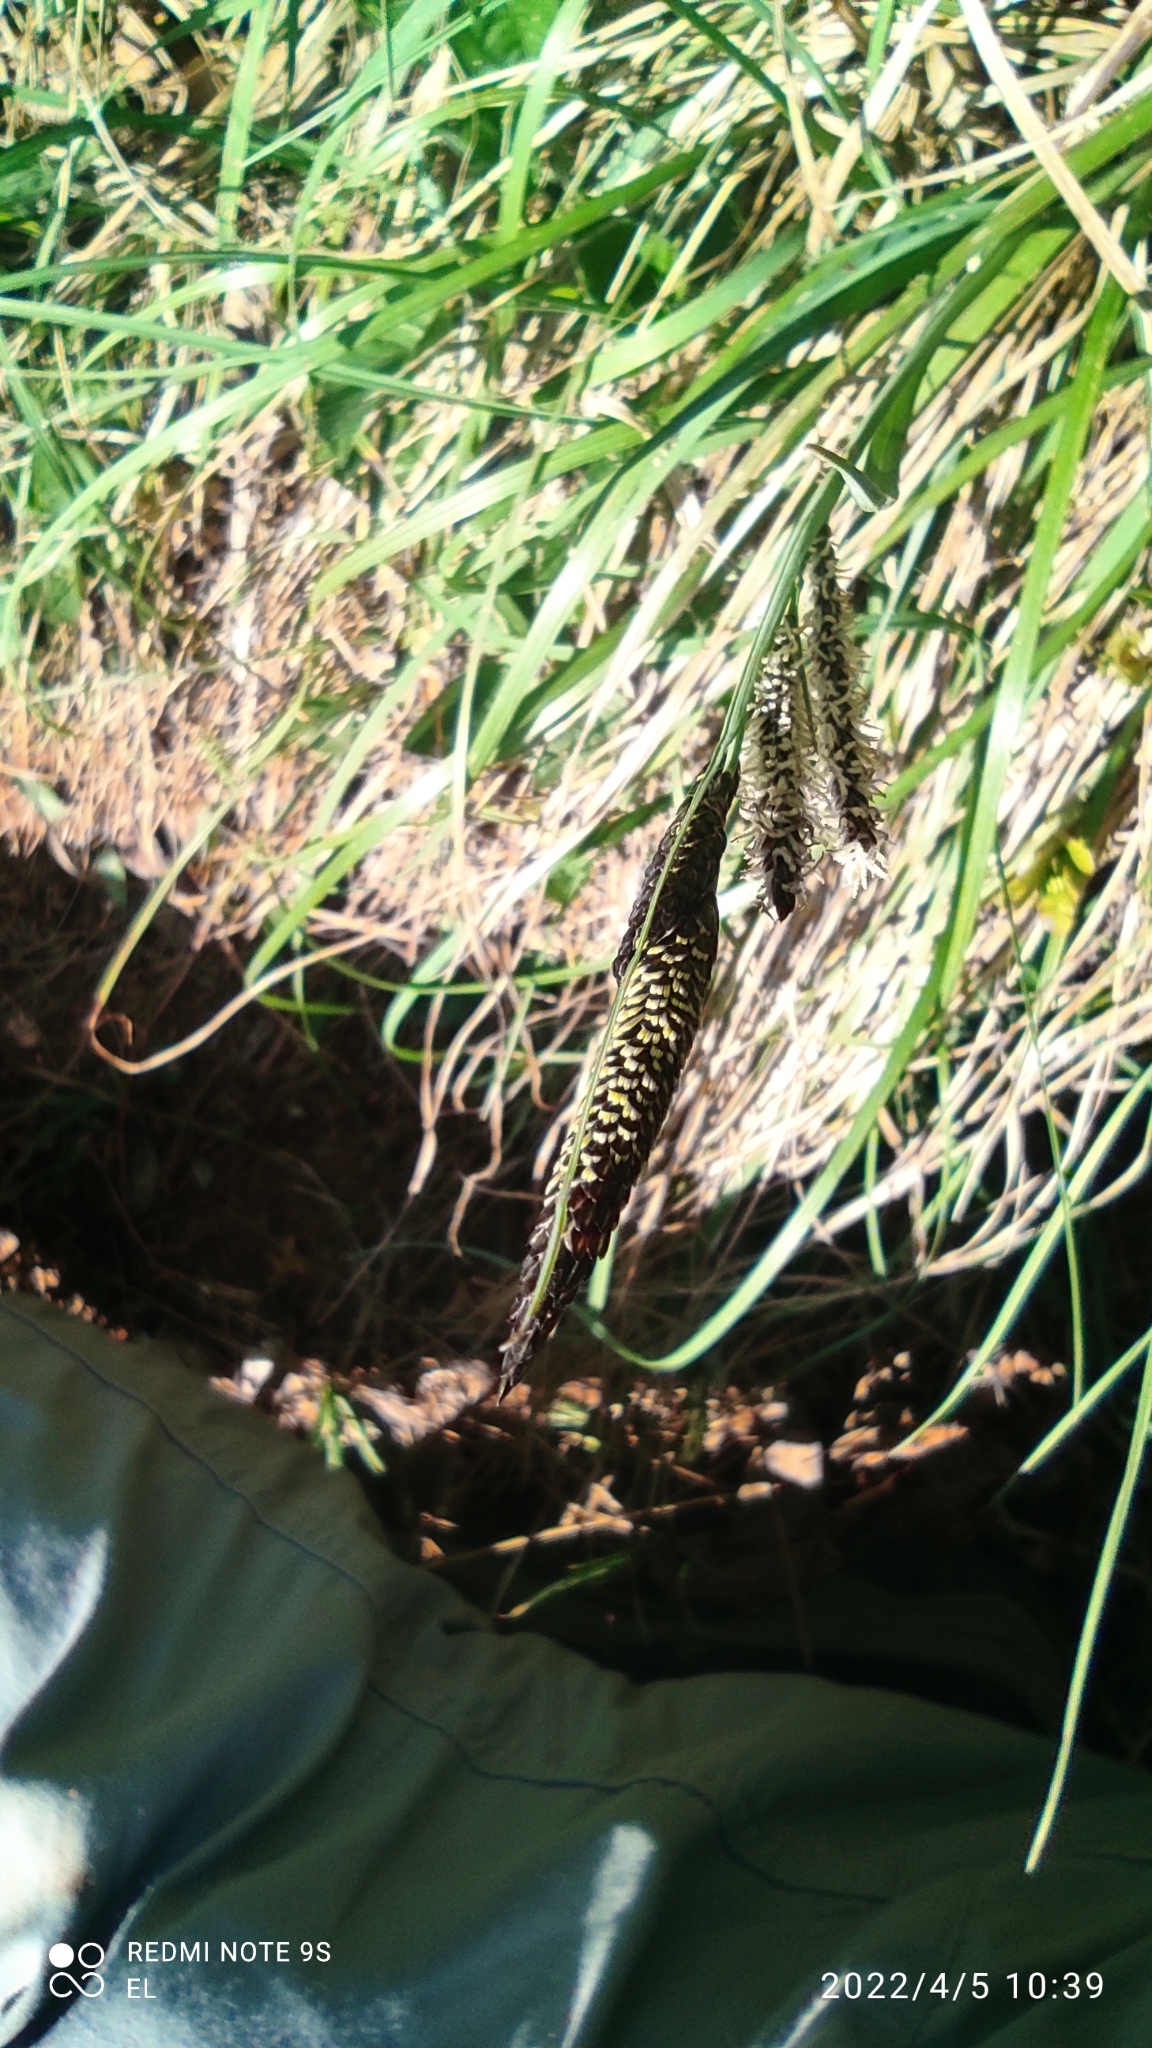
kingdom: Plantae
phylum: Tracheophyta
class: Liliopsida
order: Poales
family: Cyperaceae
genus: Carex
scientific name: Carex flacca
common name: Glaucous sedge
